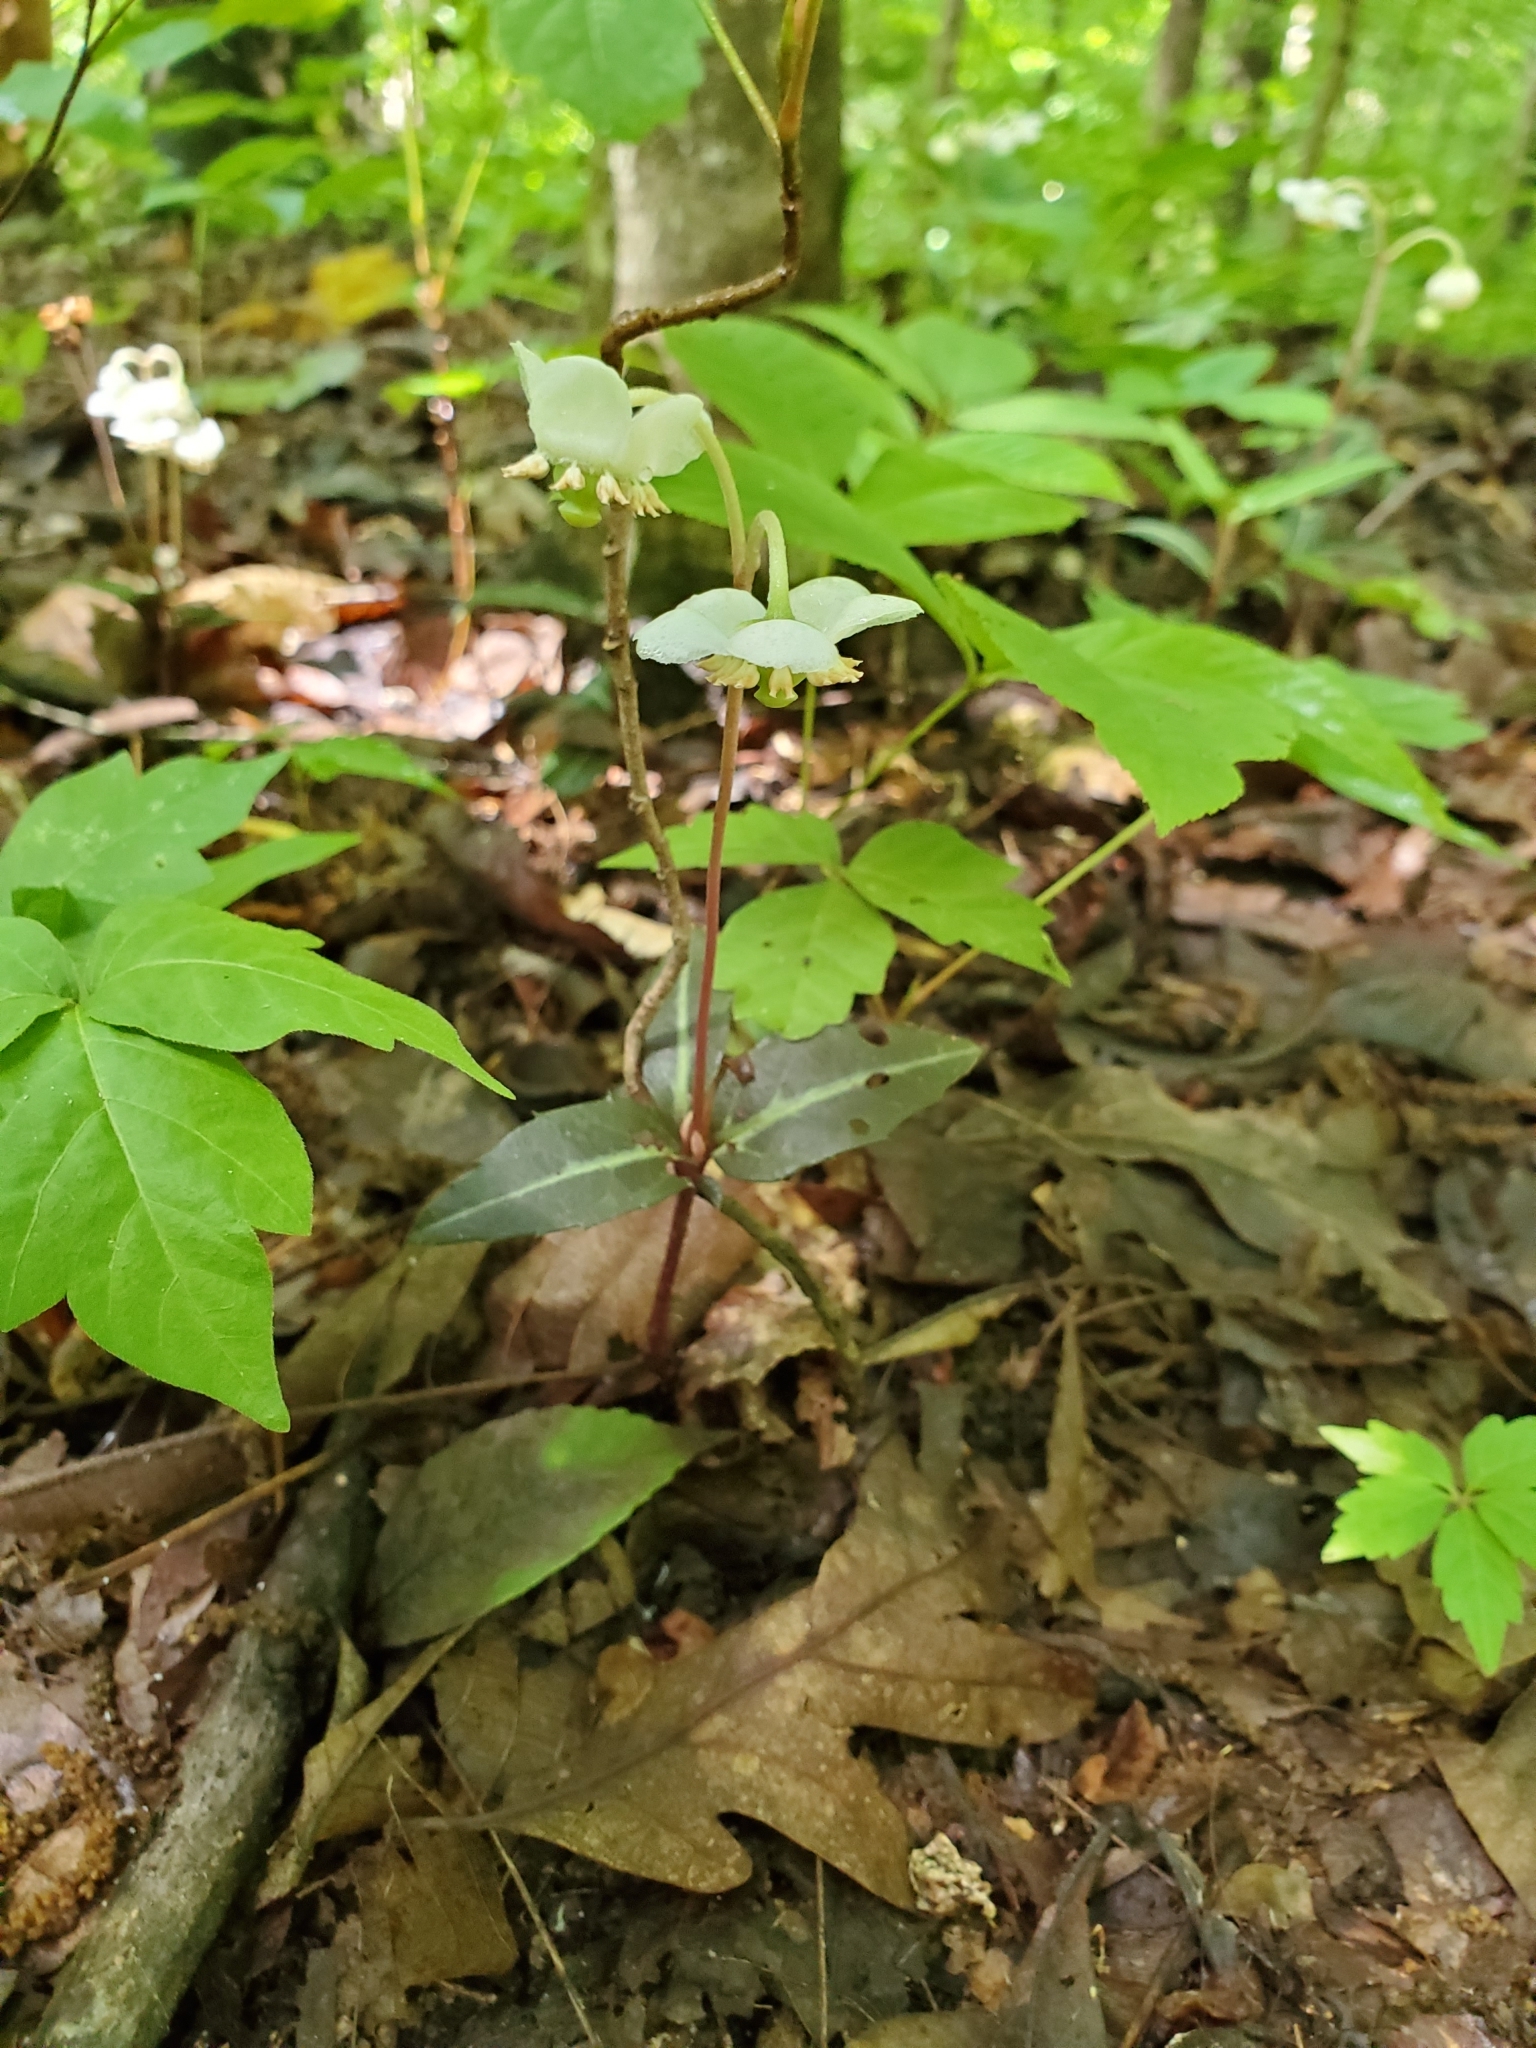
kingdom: Plantae
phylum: Tracheophyta
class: Magnoliopsida
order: Ericales
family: Ericaceae
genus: Chimaphila
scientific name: Chimaphila maculata
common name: Spotted pipsissewa
